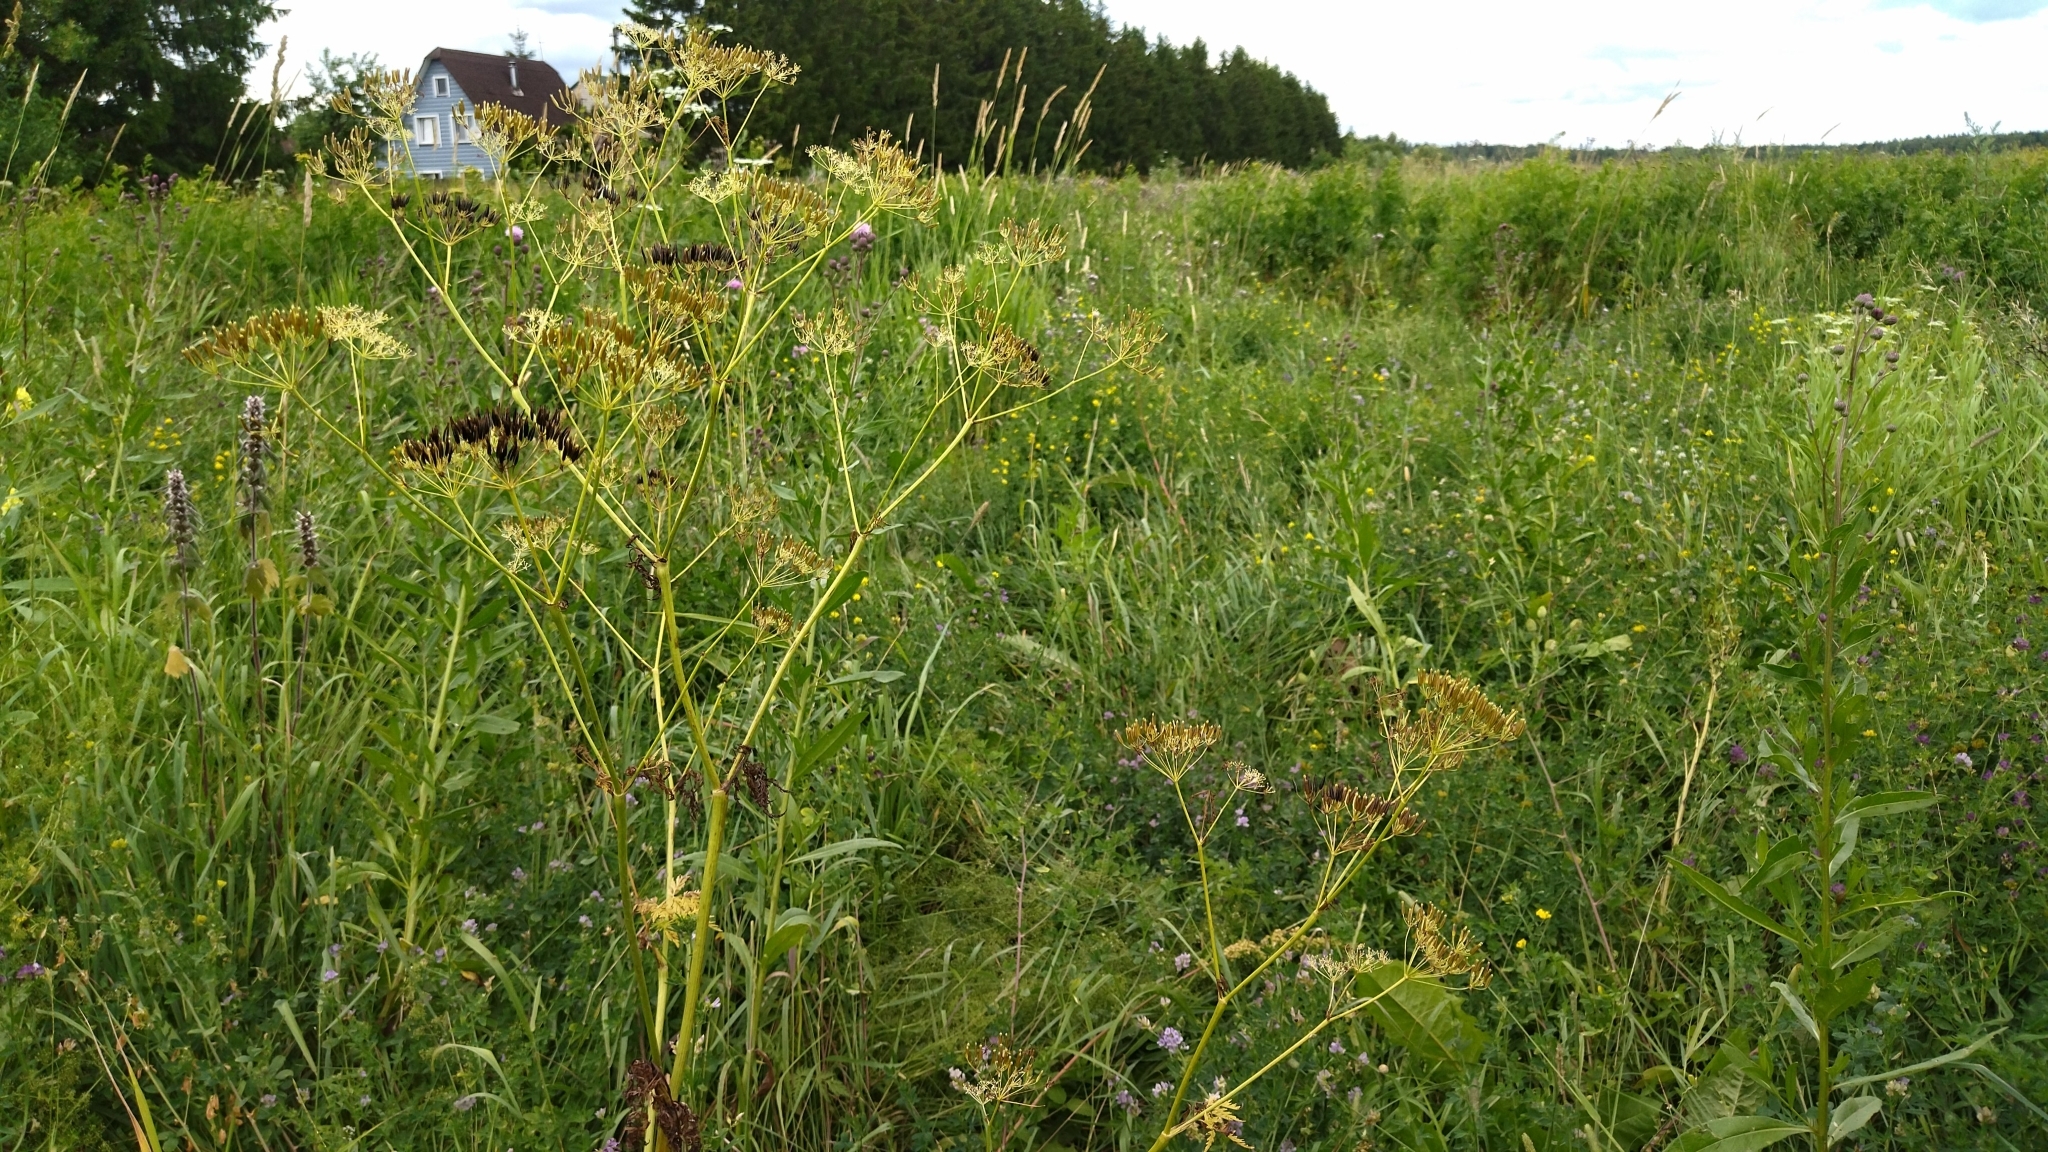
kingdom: Plantae
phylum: Tracheophyta
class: Magnoliopsida
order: Apiales
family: Apiaceae
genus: Anthriscus
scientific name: Anthriscus sylvestris
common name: Cow parsley
